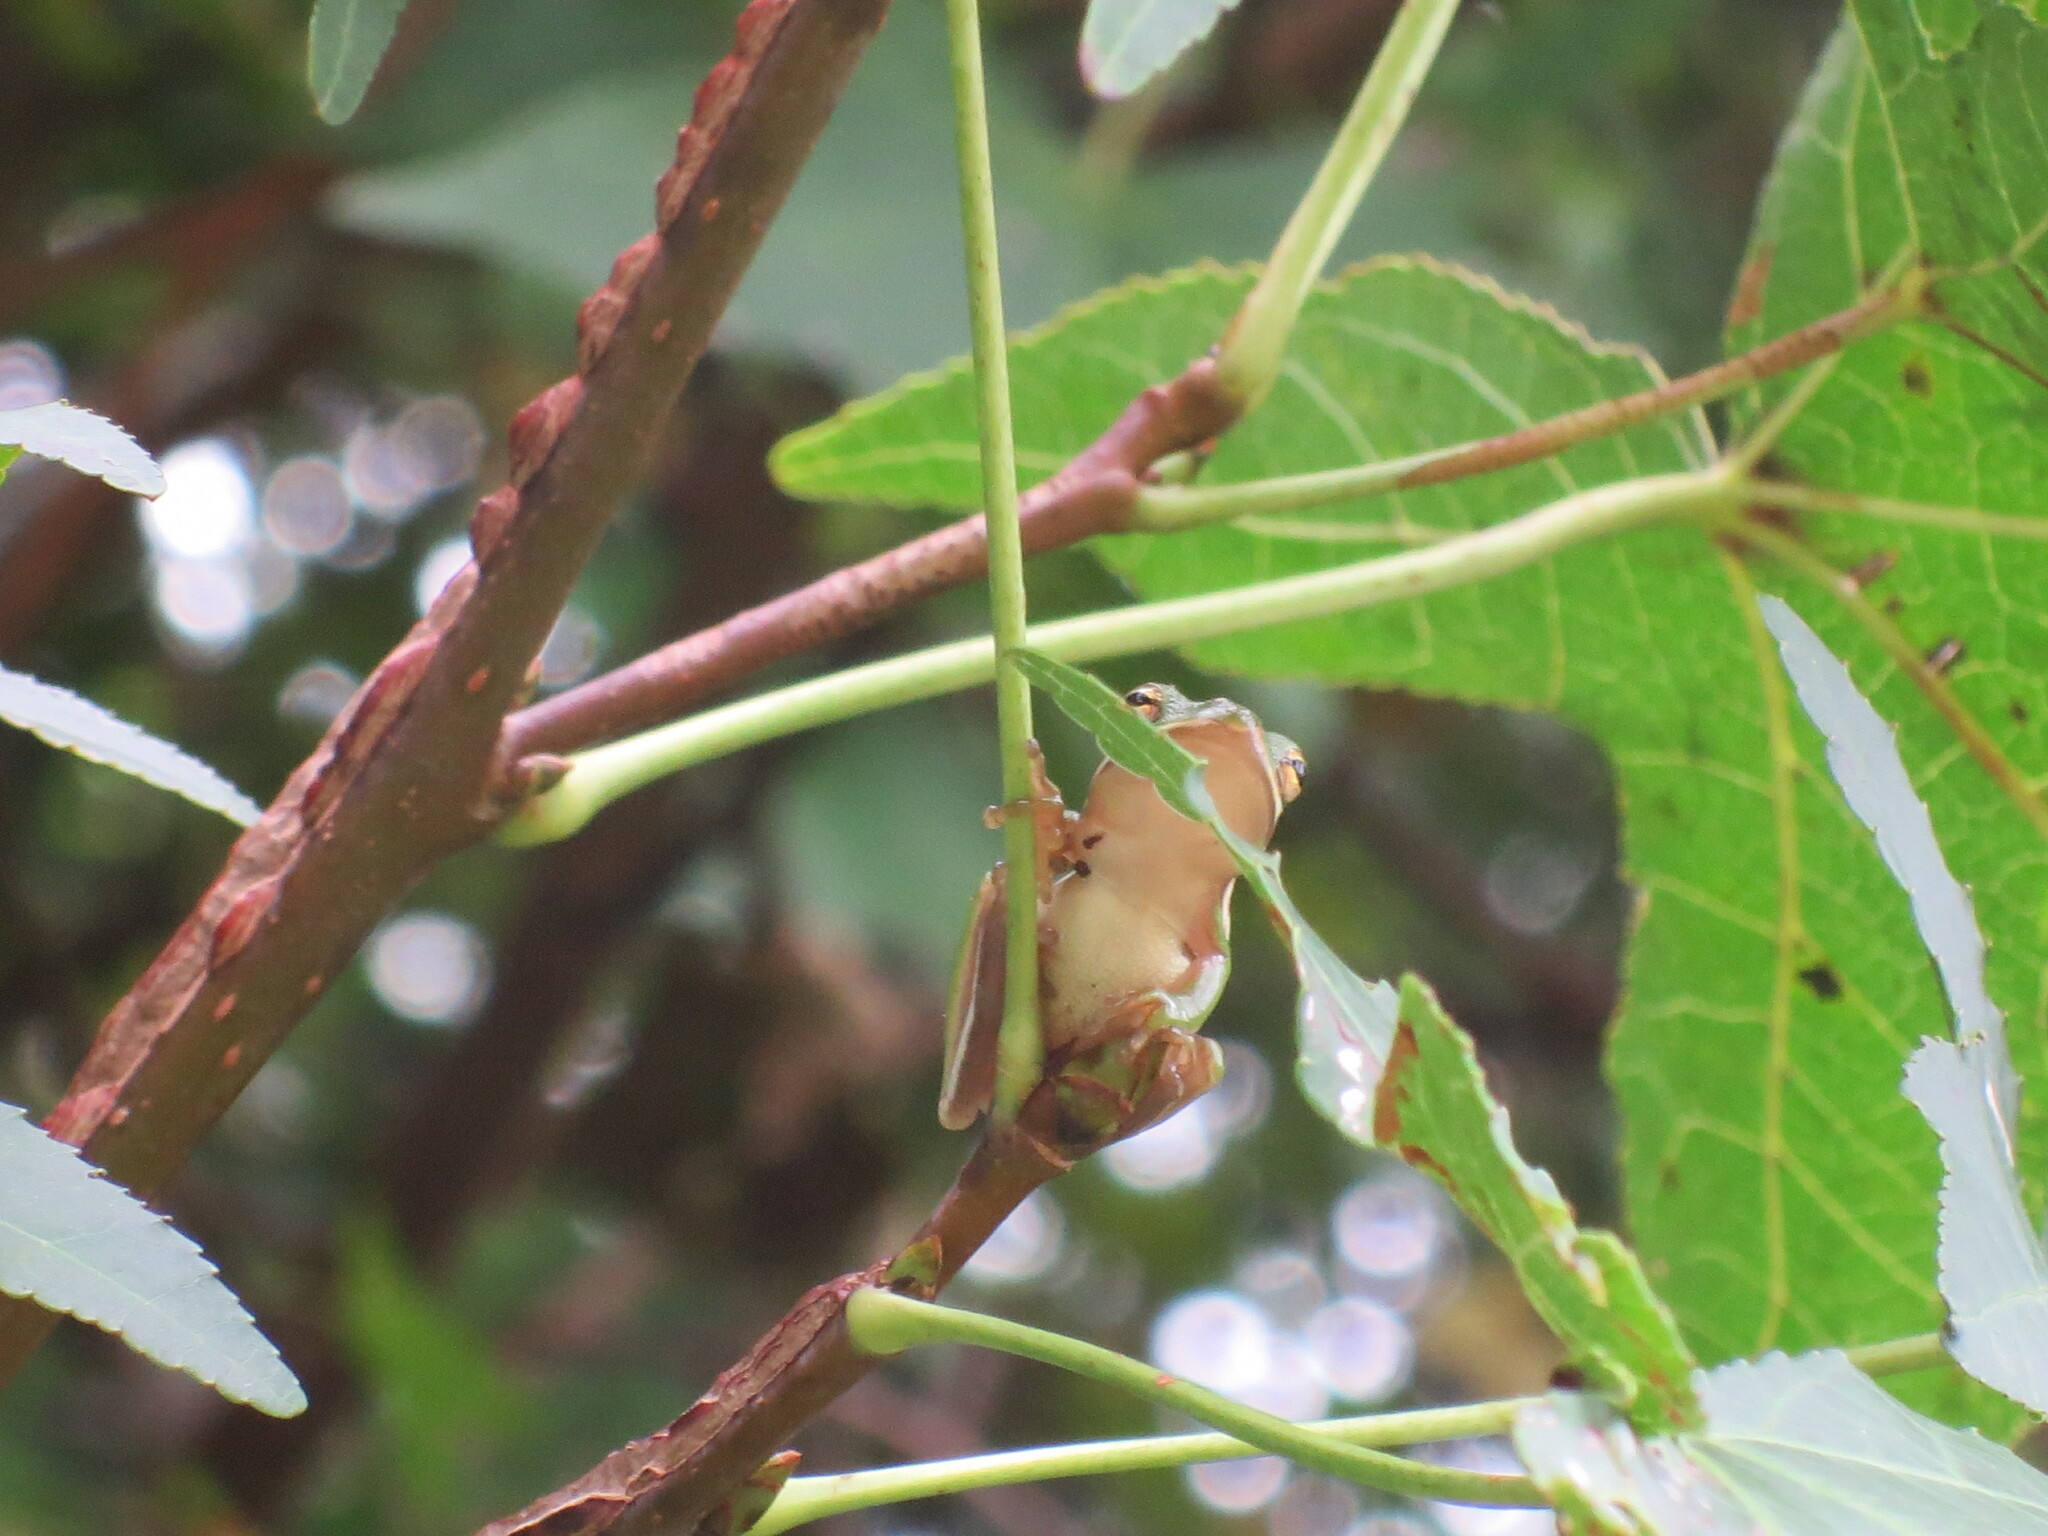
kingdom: Animalia
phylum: Chordata
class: Amphibia
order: Anura
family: Hylidae
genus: Dryophytes
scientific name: Dryophytes cinereus
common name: Green treefrog
